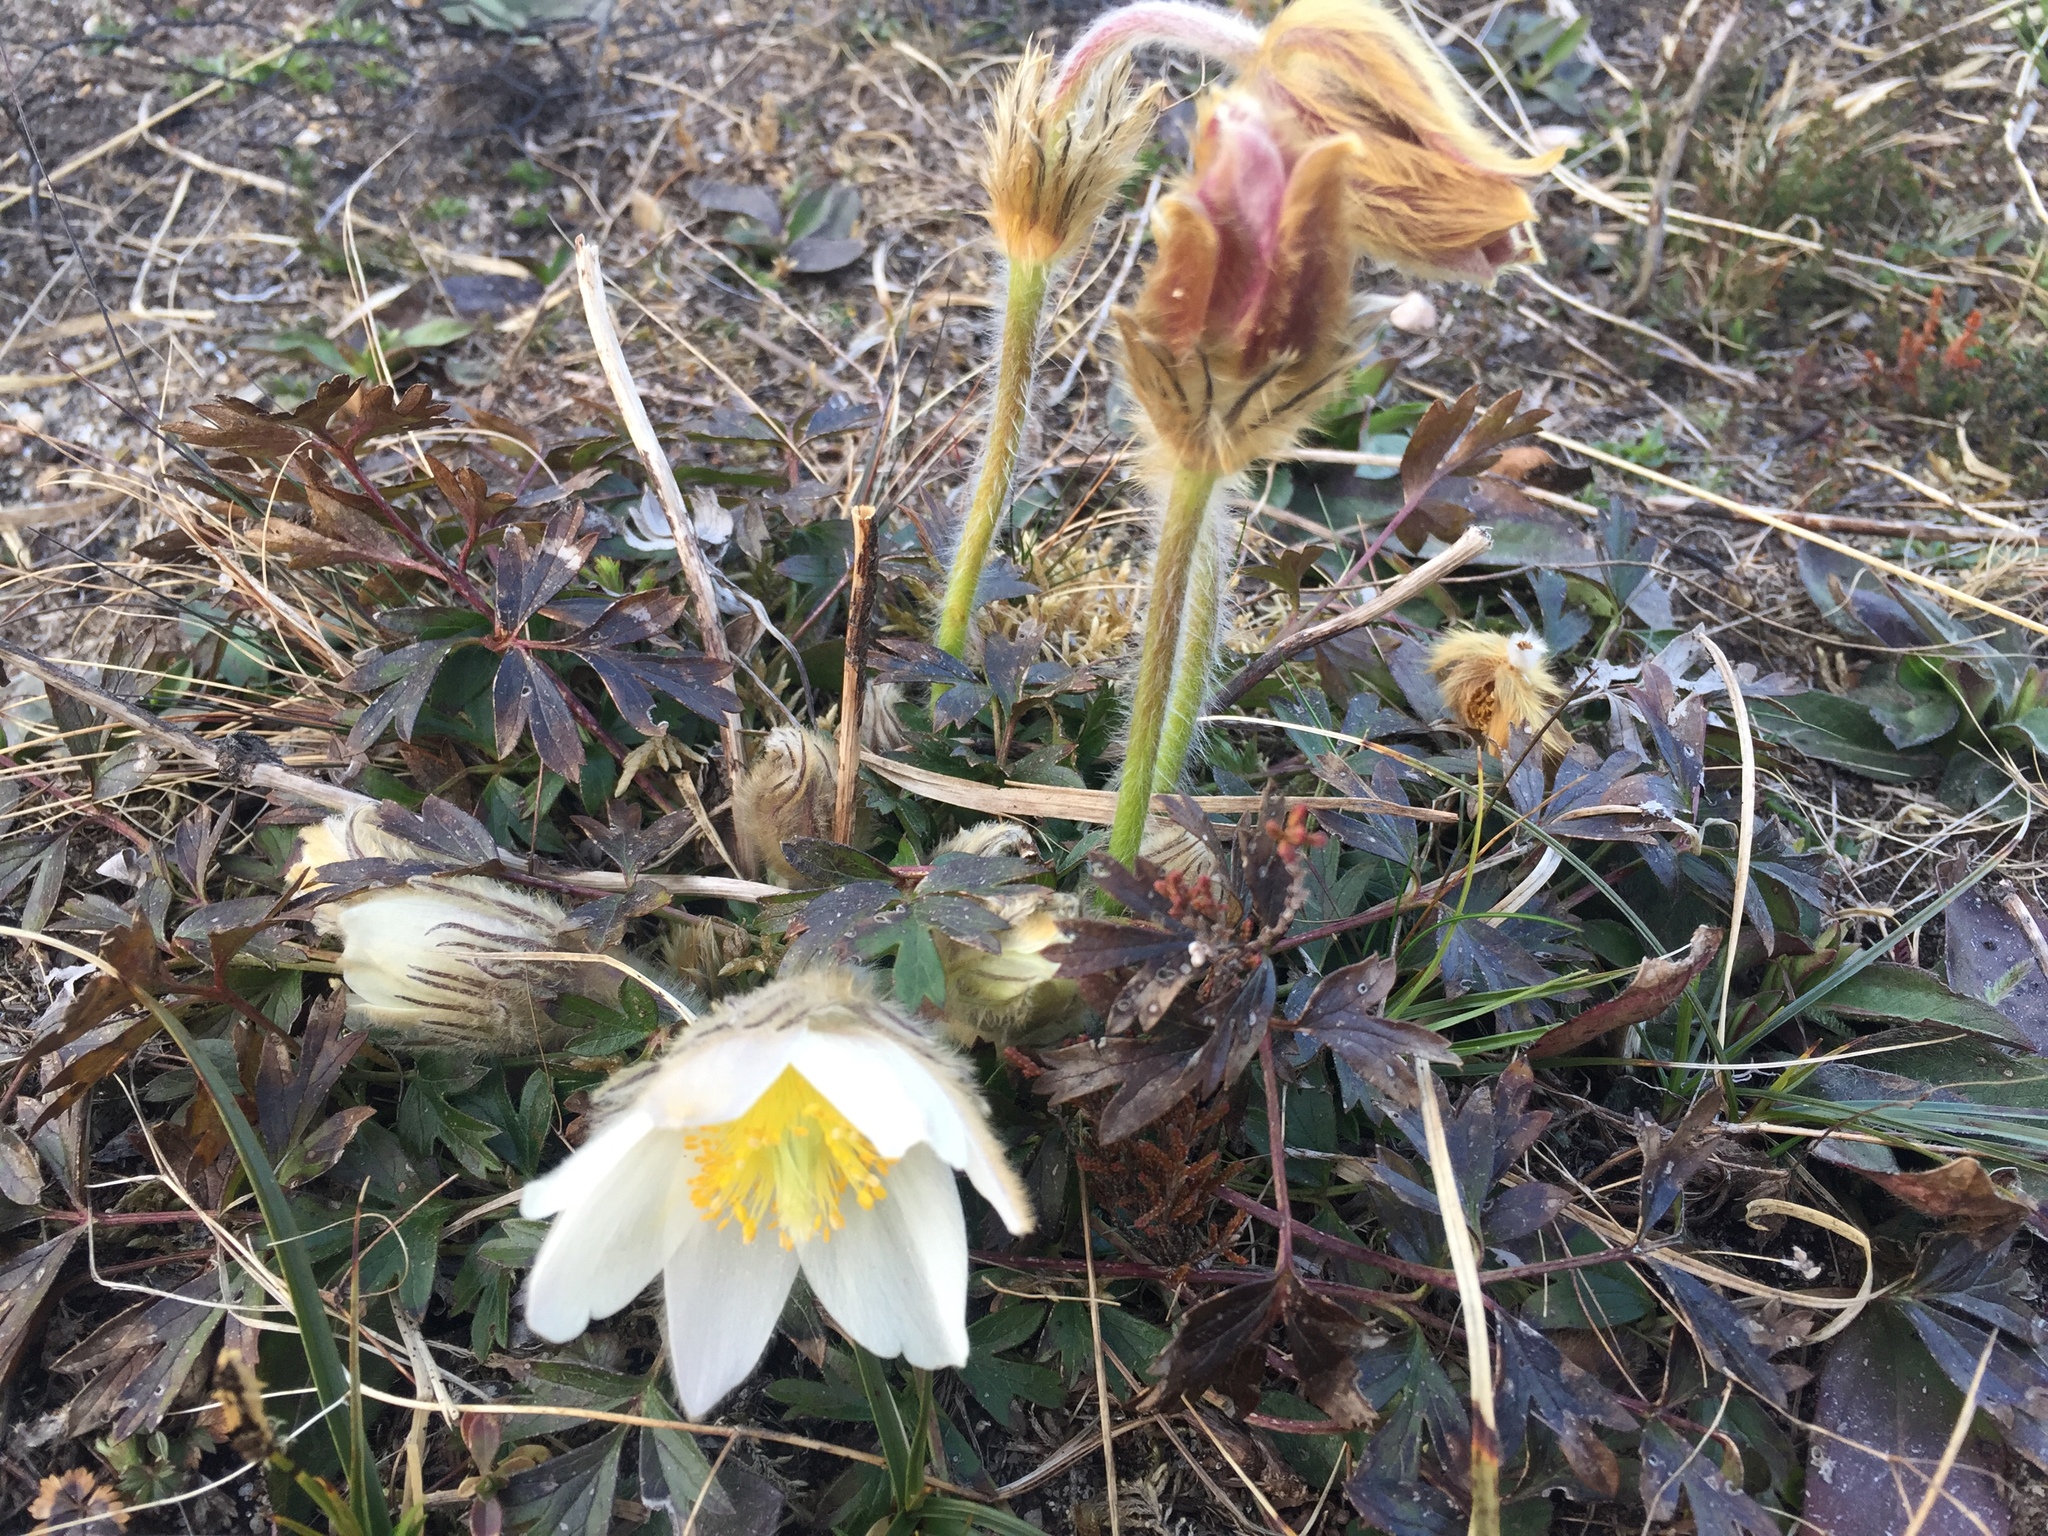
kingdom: Plantae
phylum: Tracheophyta
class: Magnoliopsida
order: Ranunculales
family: Ranunculaceae
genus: Pulsatilla
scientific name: Pulsatilla vernalis
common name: Spring pasque flower
